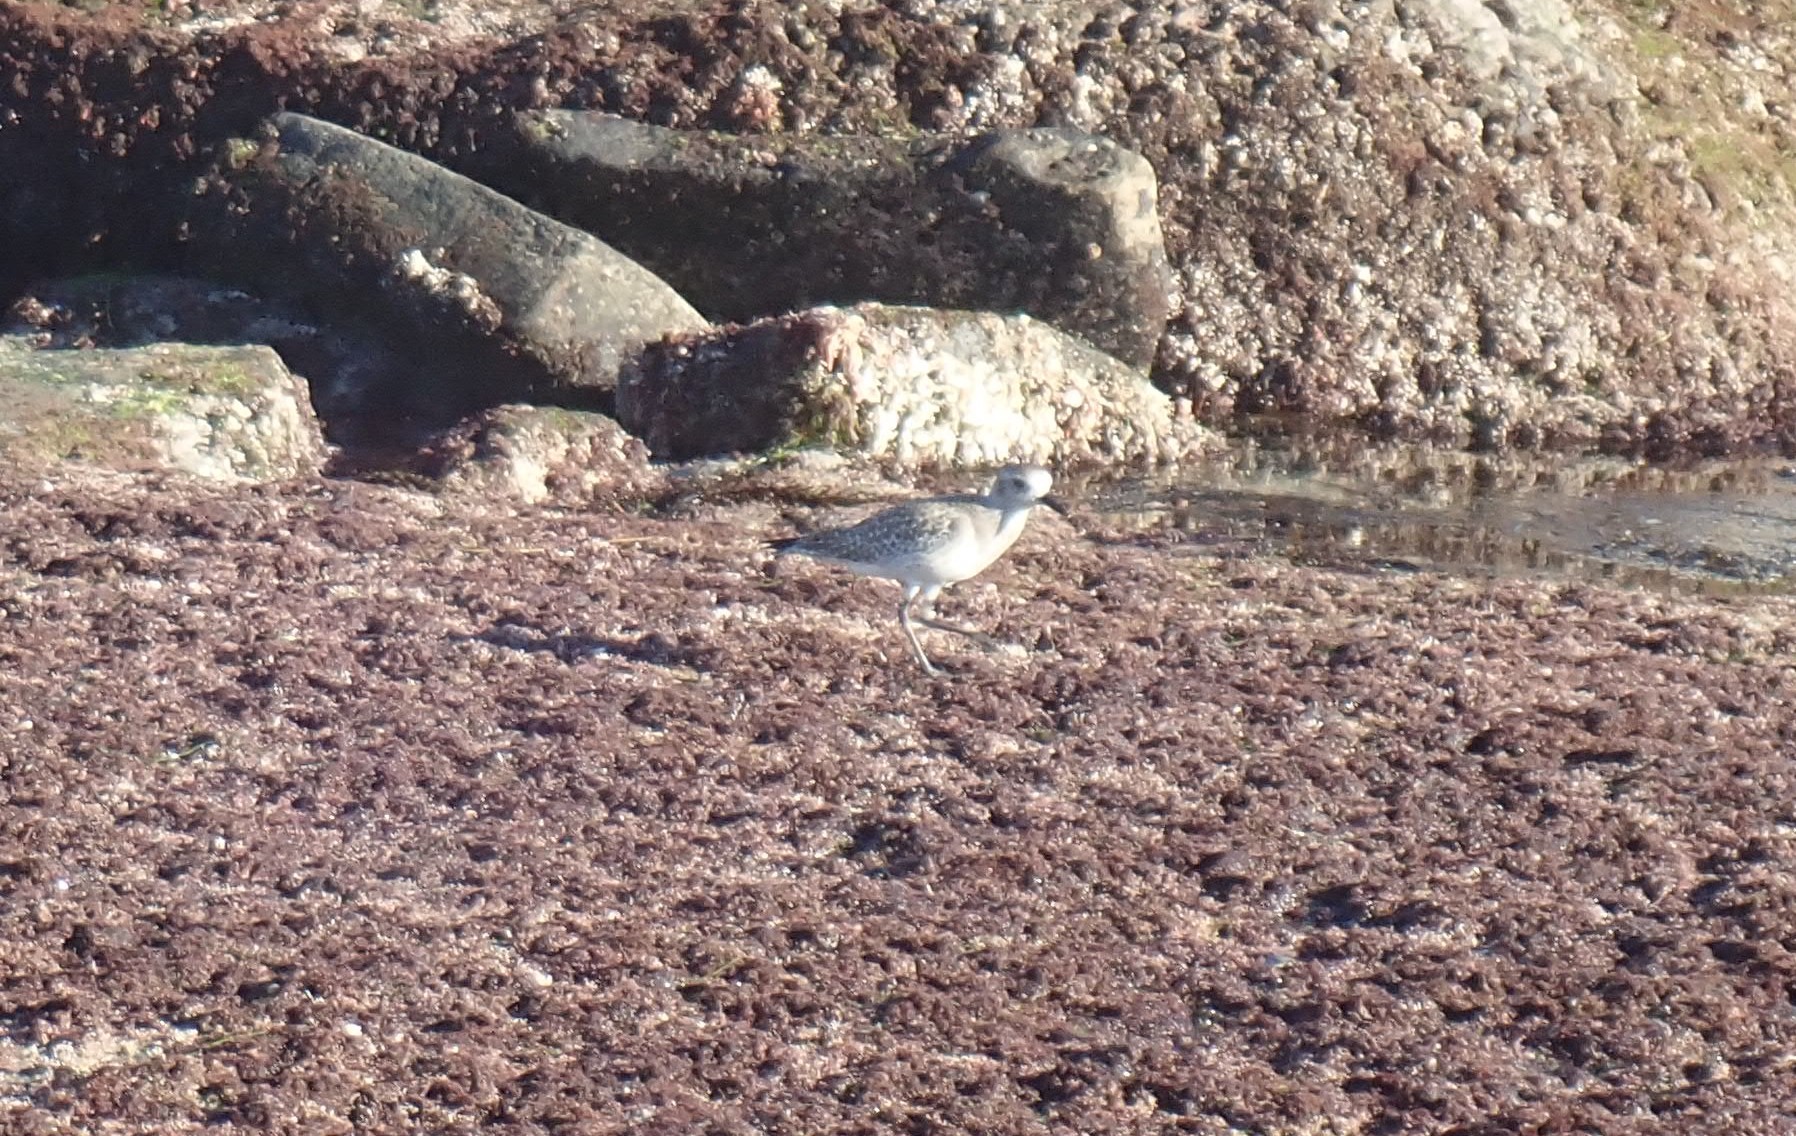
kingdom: Animalia
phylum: Chordata
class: Aves
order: Charadriiformes
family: Charadriidae
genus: Pluvialis
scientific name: Pluvialis squatarola
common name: Grey plover
